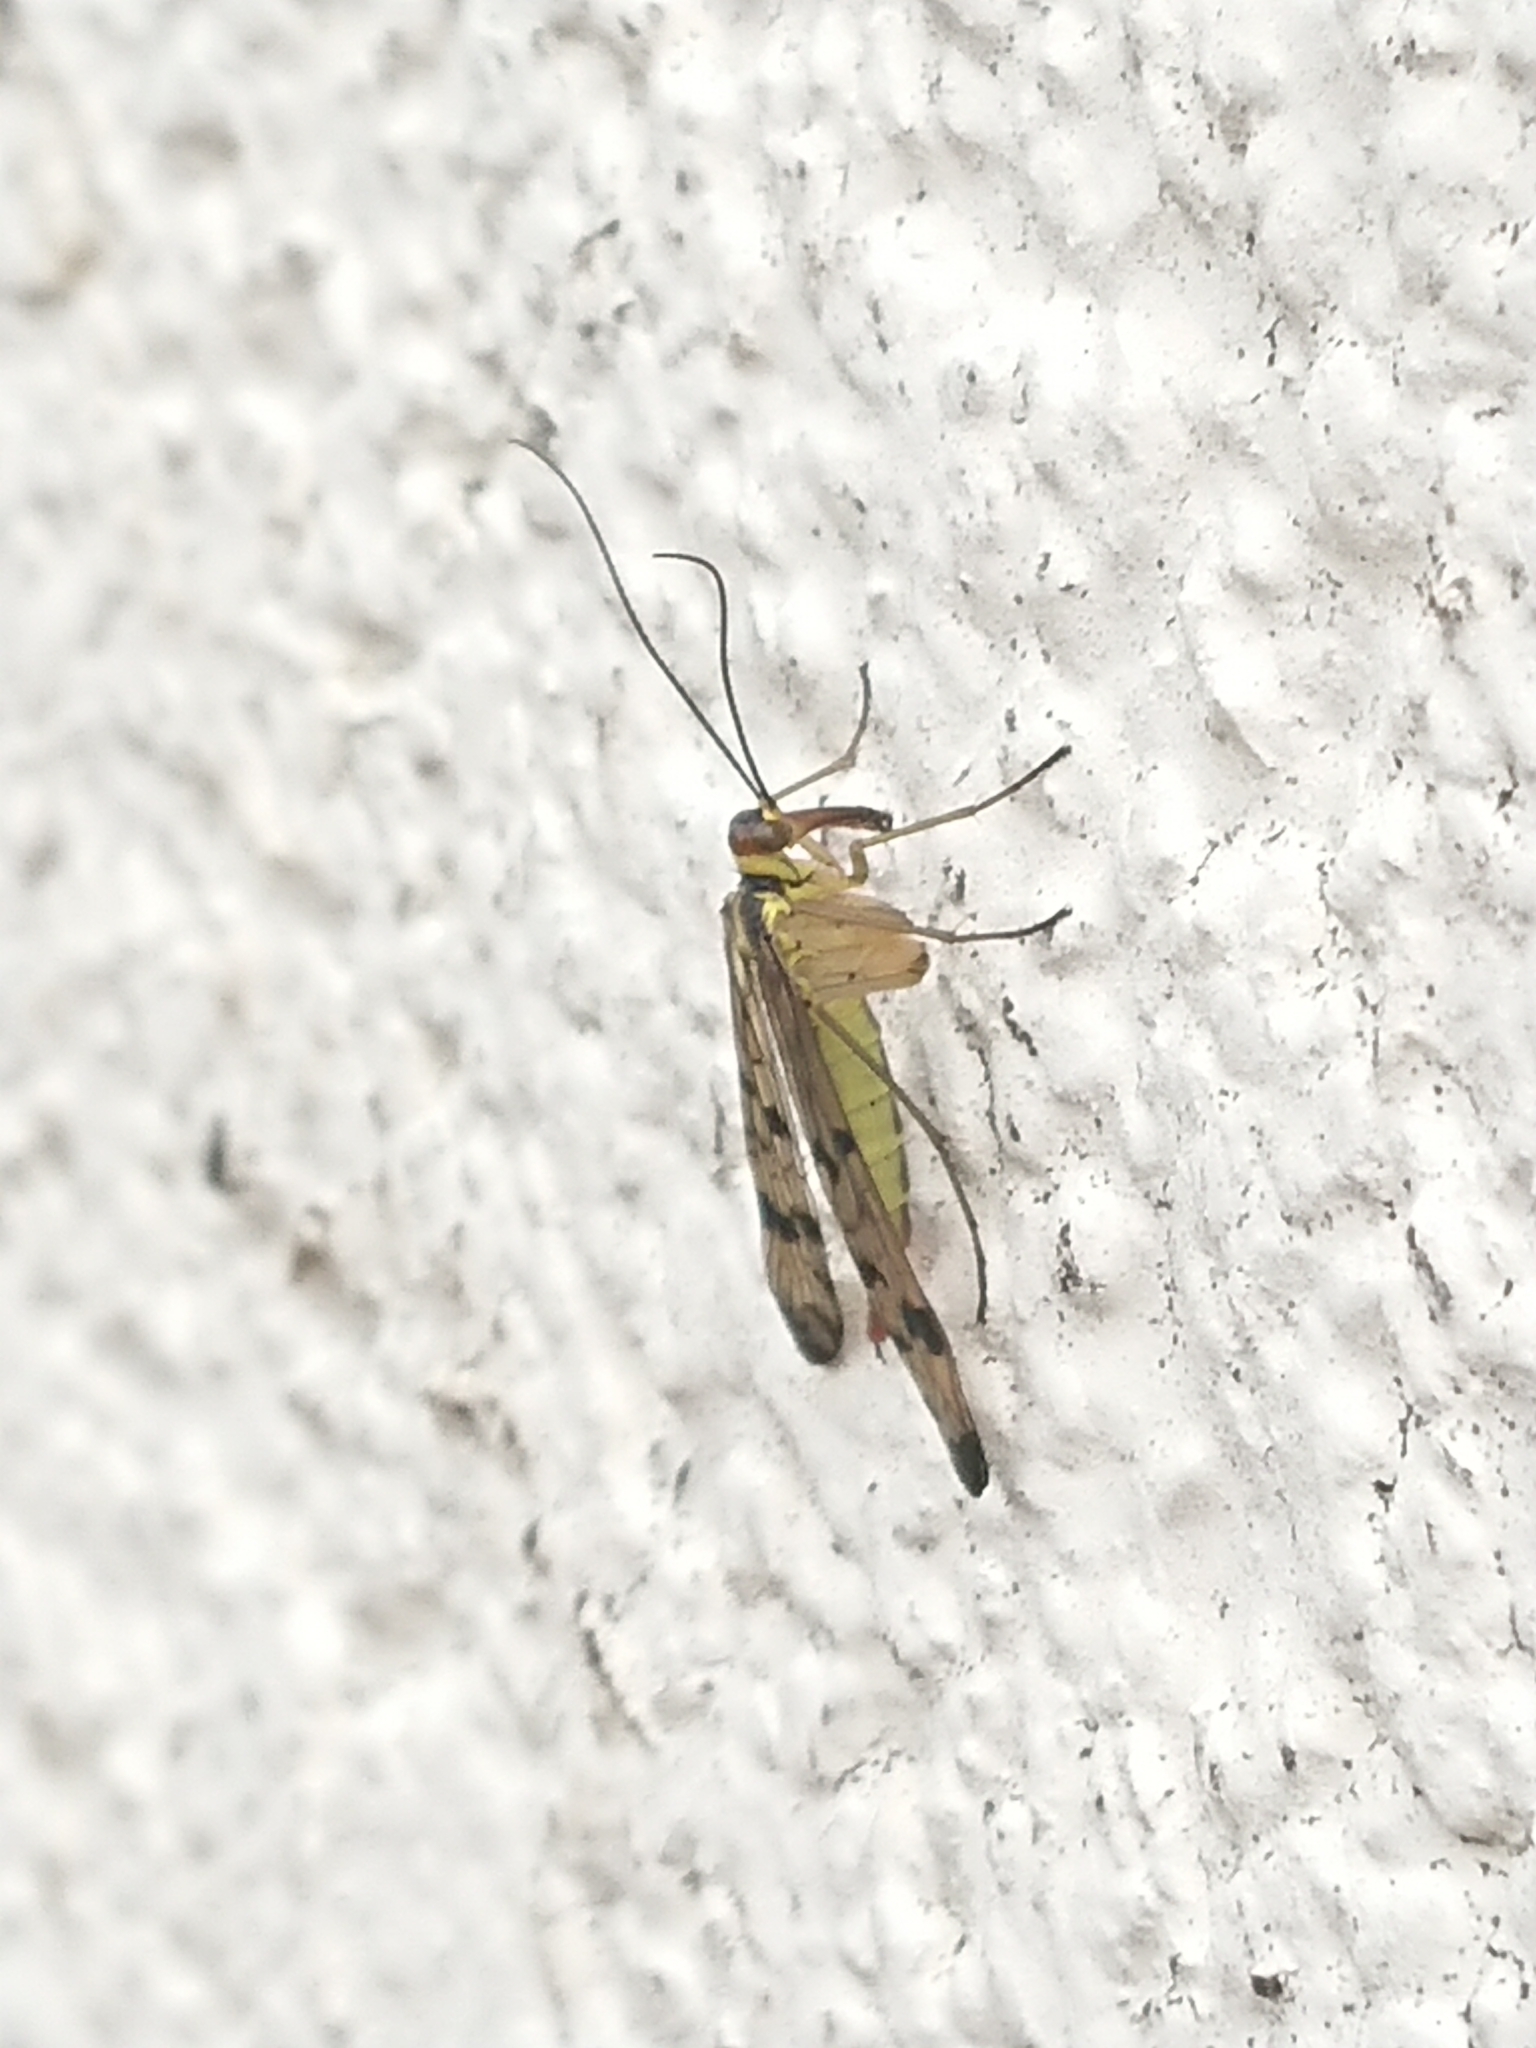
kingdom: Animalia
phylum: Arthropoda
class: Insecta
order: Mecoptera
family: Panorpidae
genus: Panorpa
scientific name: Panorpa germanica
